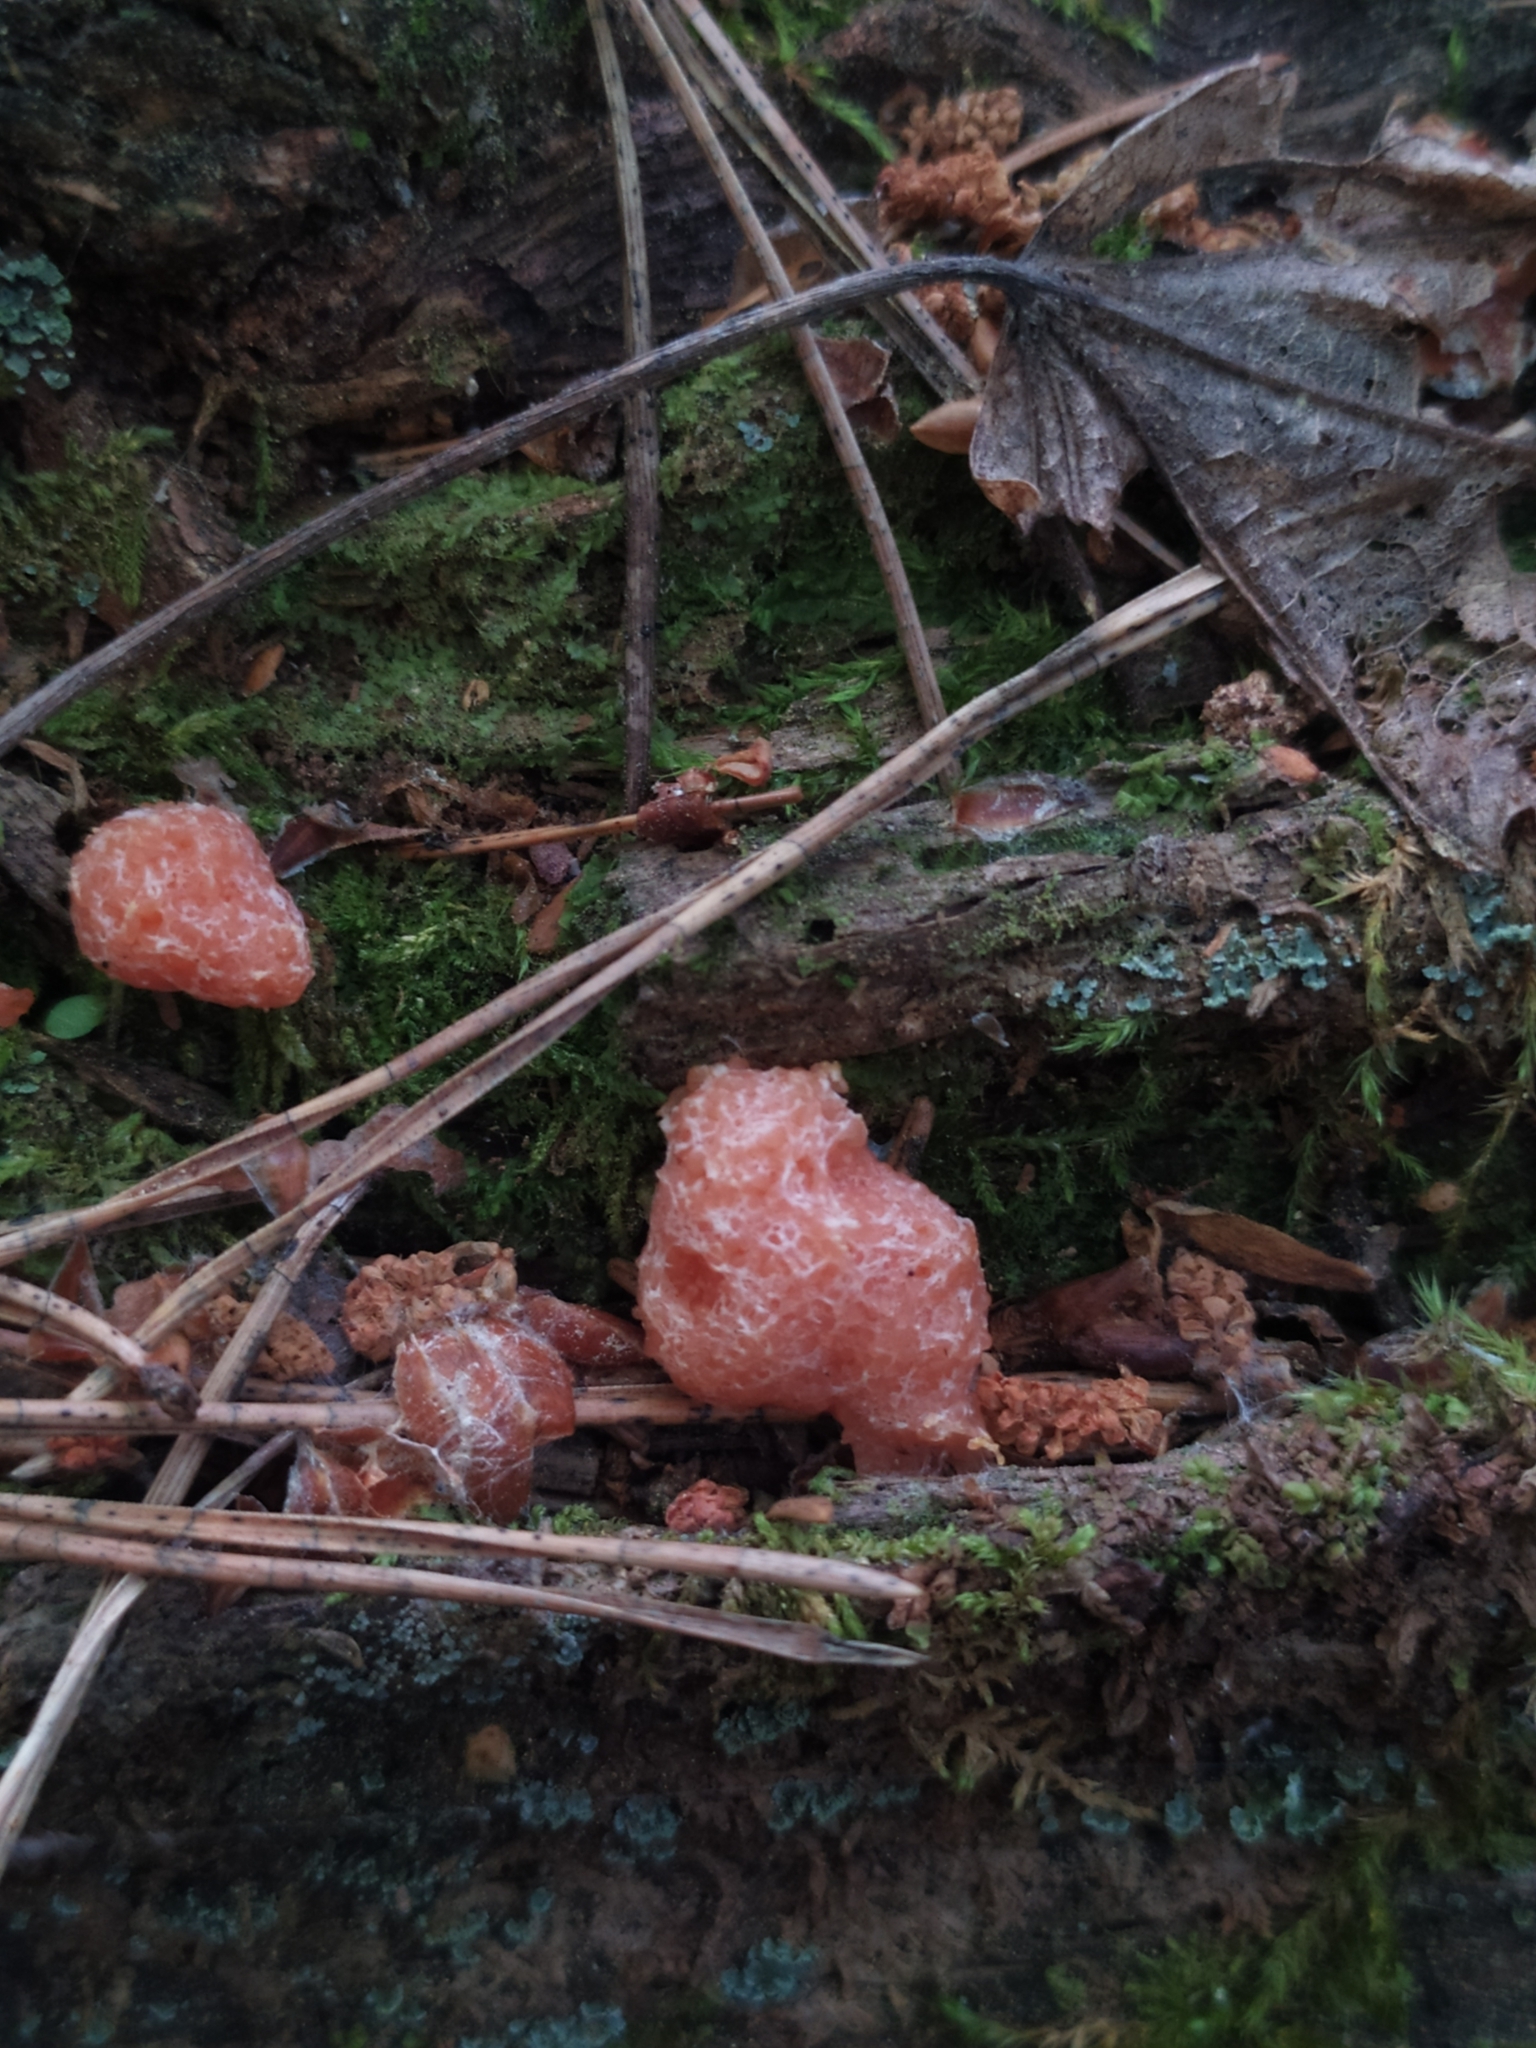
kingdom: Protozoa
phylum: Mycetozoa
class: Myxomycetes
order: Cribrariales
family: Tubiferaceae
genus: Tubifera
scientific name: Tubifera dudkae
